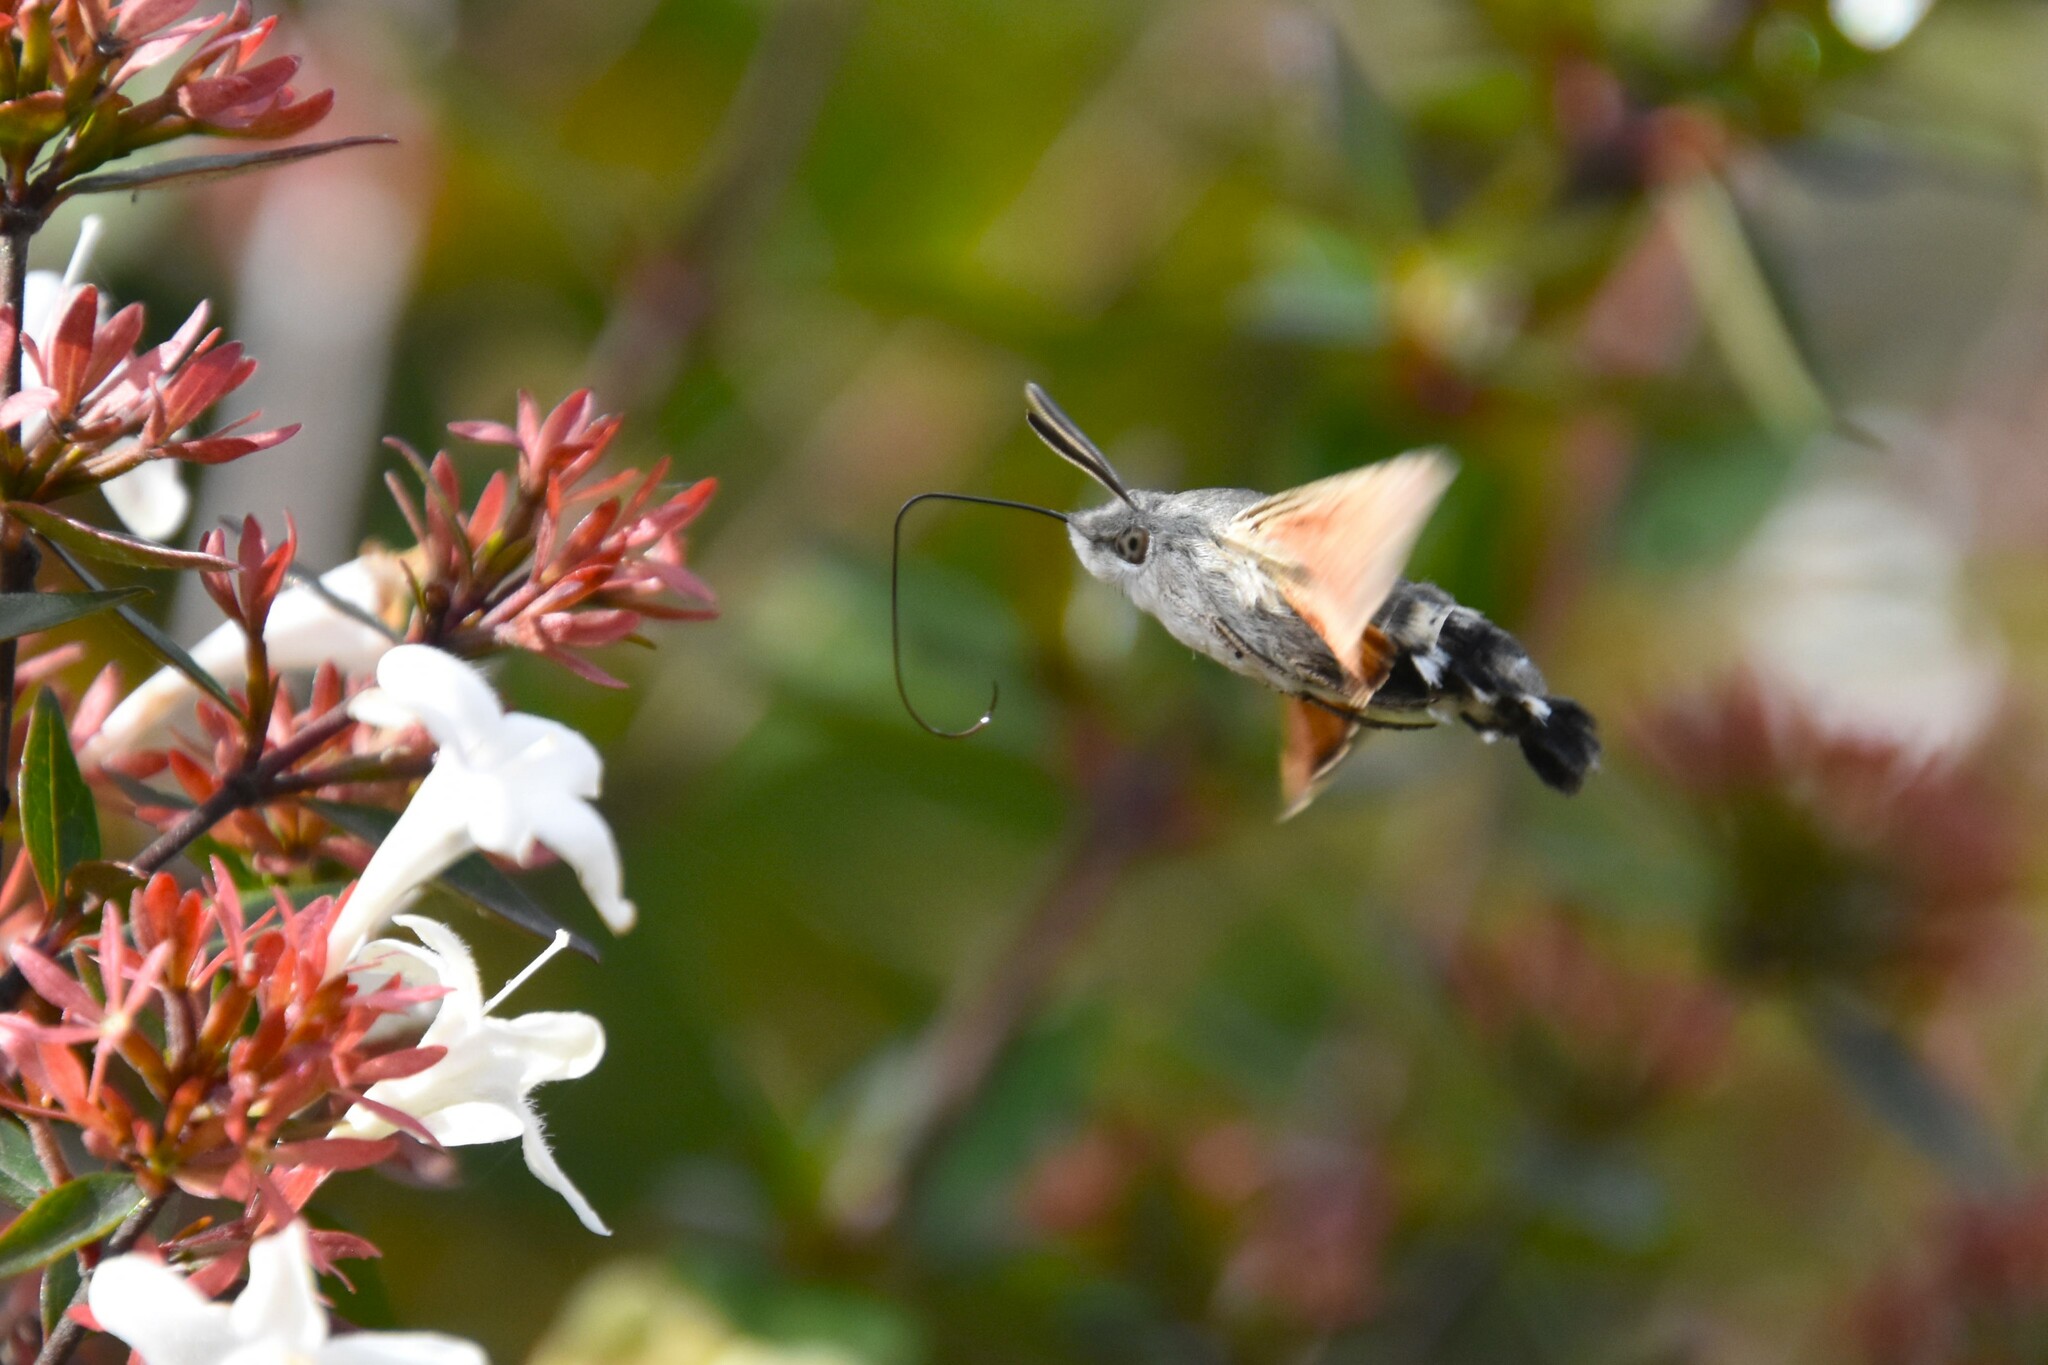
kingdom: Animalia
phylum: Arthropoda
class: Insecta
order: Lepidoptera
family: Sphingidae
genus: Macroglossum
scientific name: Macroglossum stellatarum
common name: Humming-bird hawk-moth
